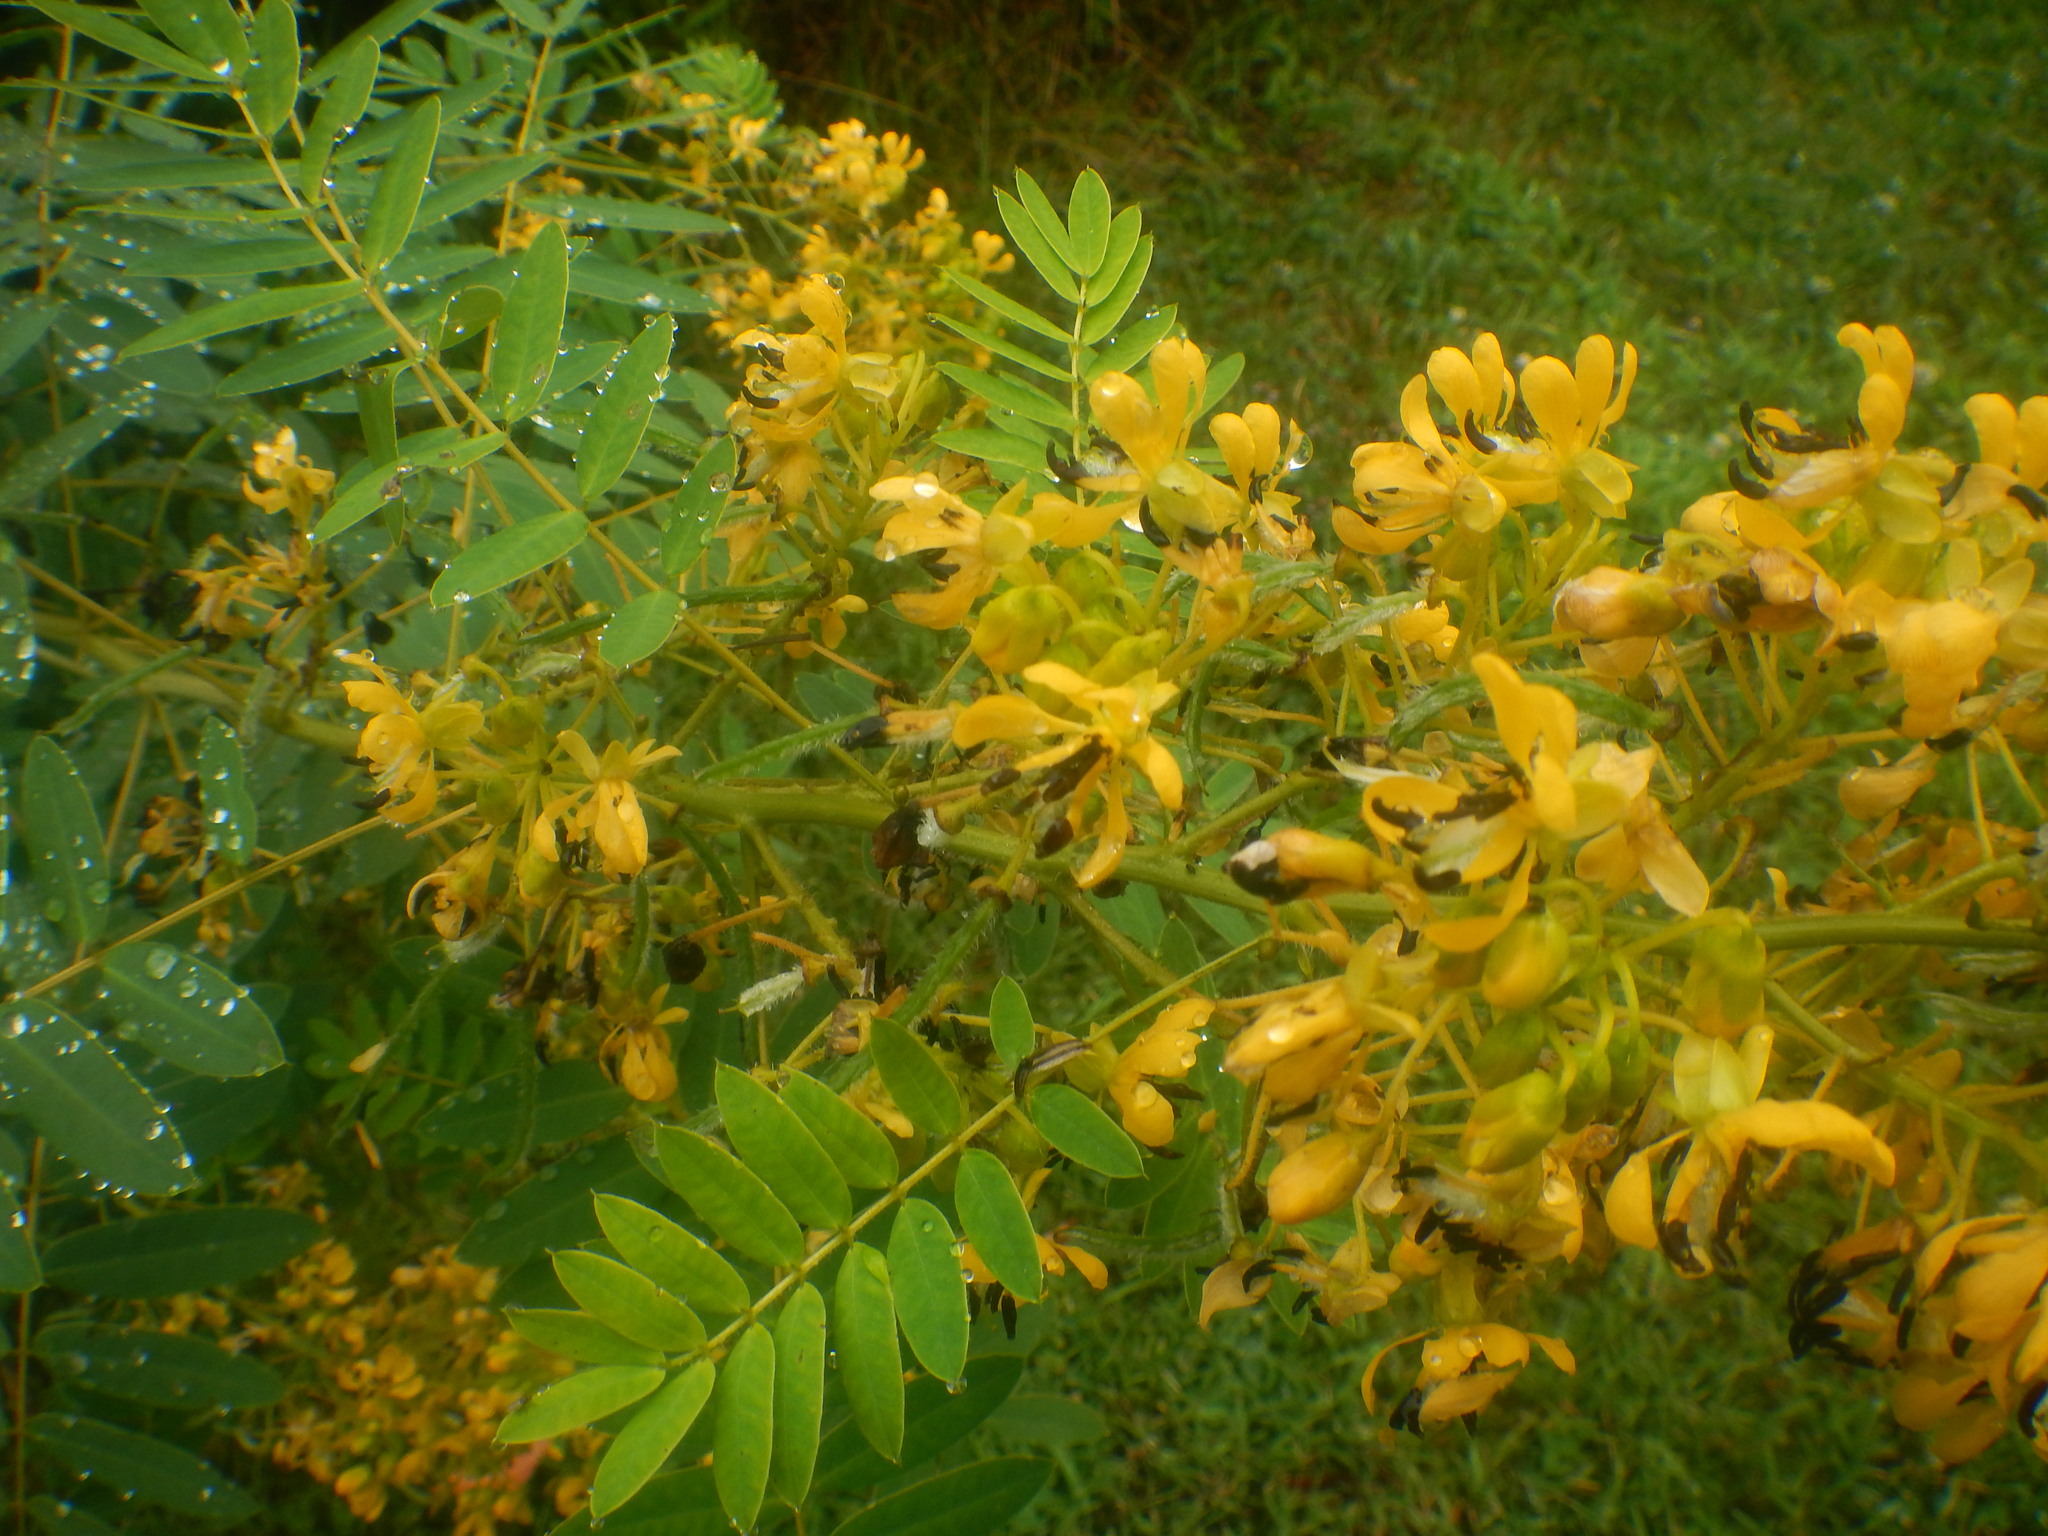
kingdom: Plantae
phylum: Tracheophyta
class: Magnoliopsida
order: Fabales
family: Fabaceae
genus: Senna
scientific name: Senna hebecarpa
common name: Wild senna
